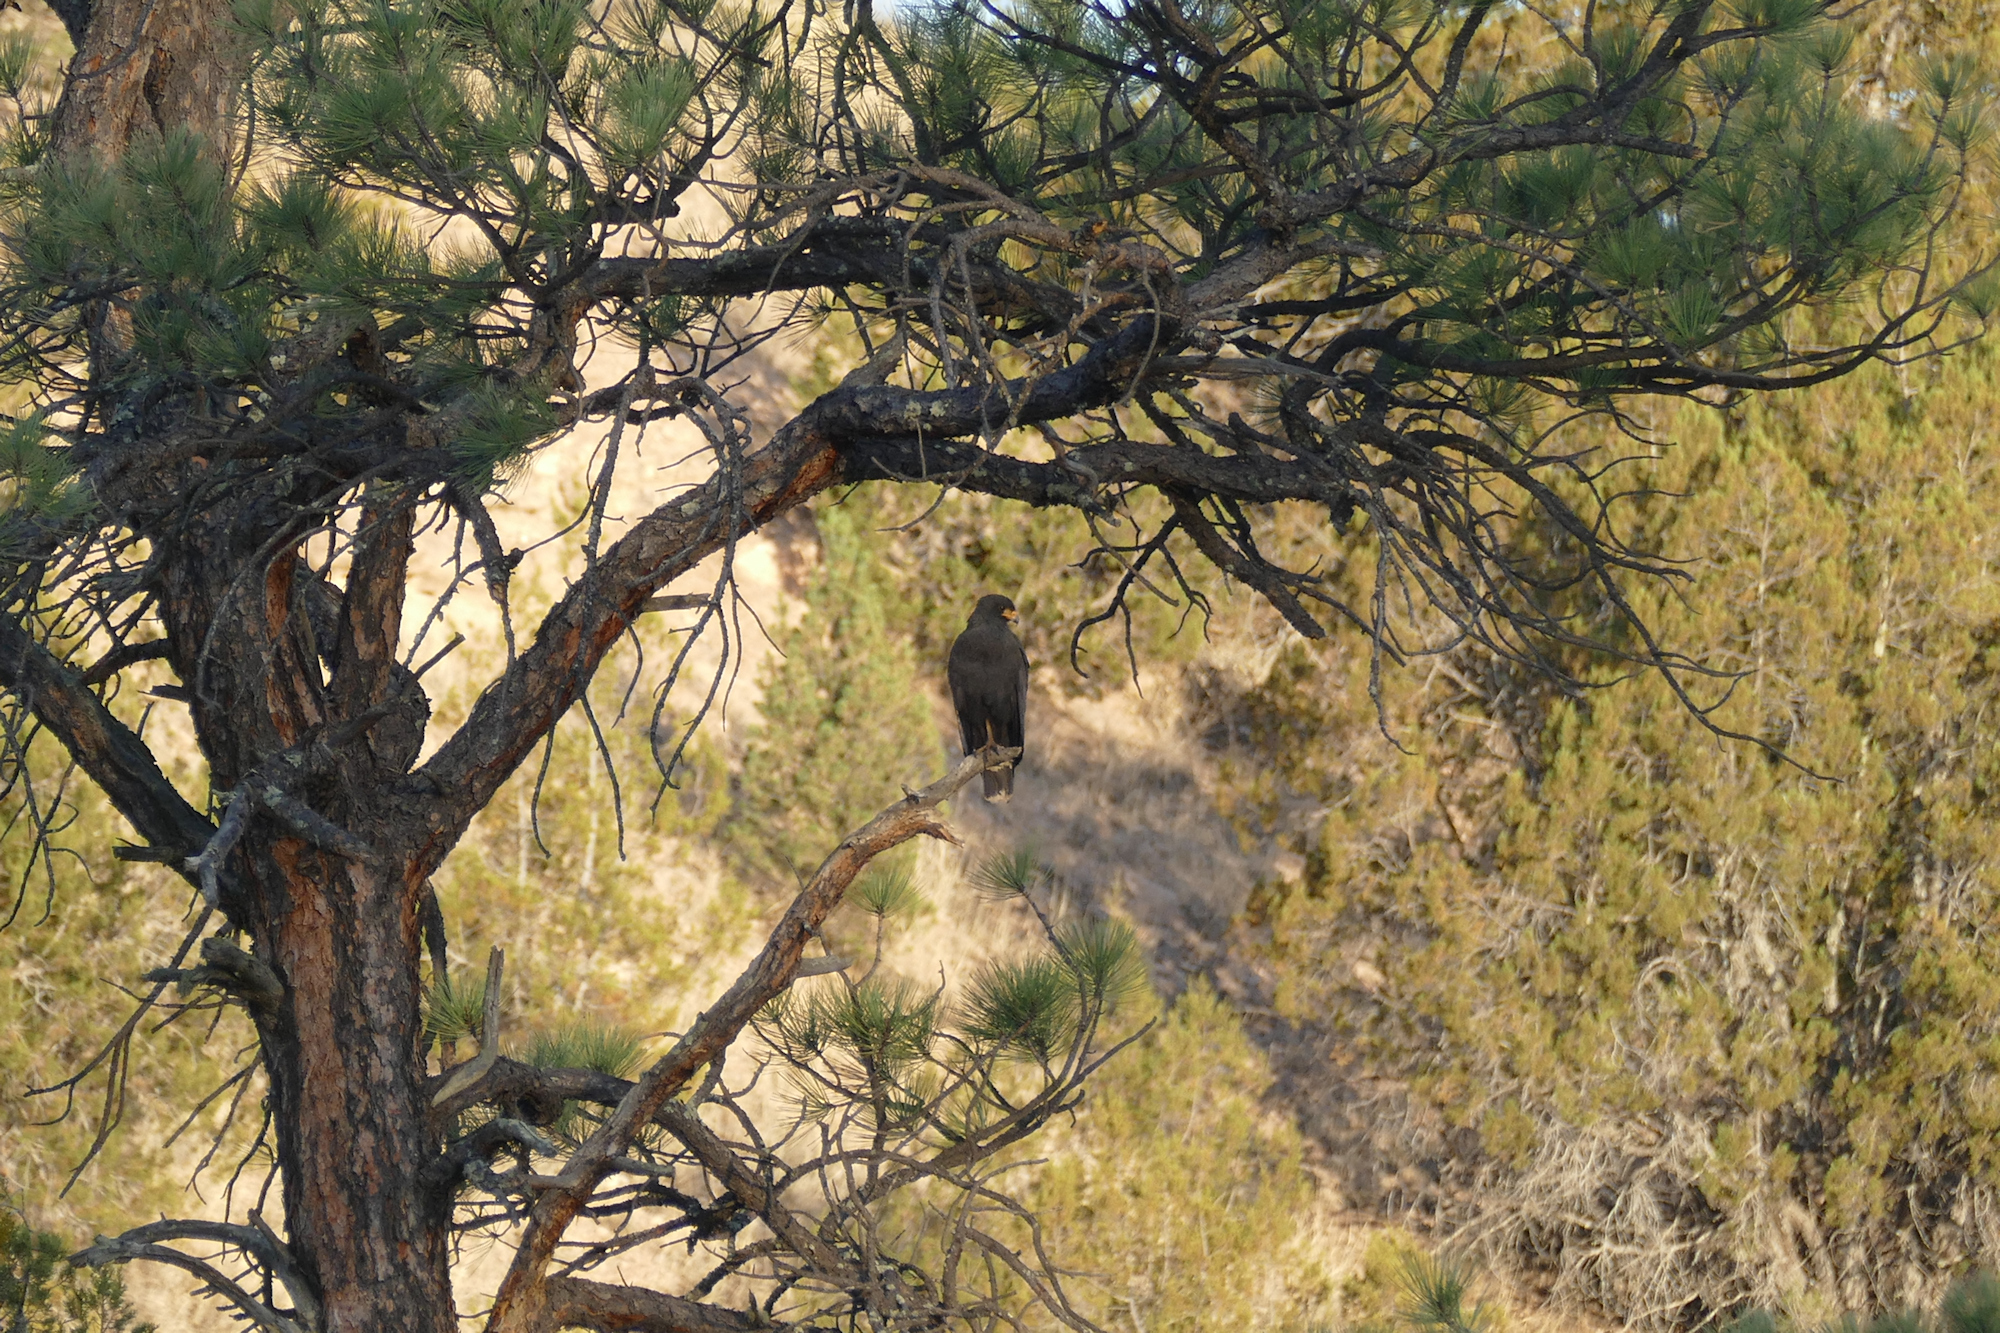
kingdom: Animalia
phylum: Chordata
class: Aves
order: Accipitriformes
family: Accipitridae
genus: Buteogallus
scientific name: Buteogallus anthracinus
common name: Common black hawk
